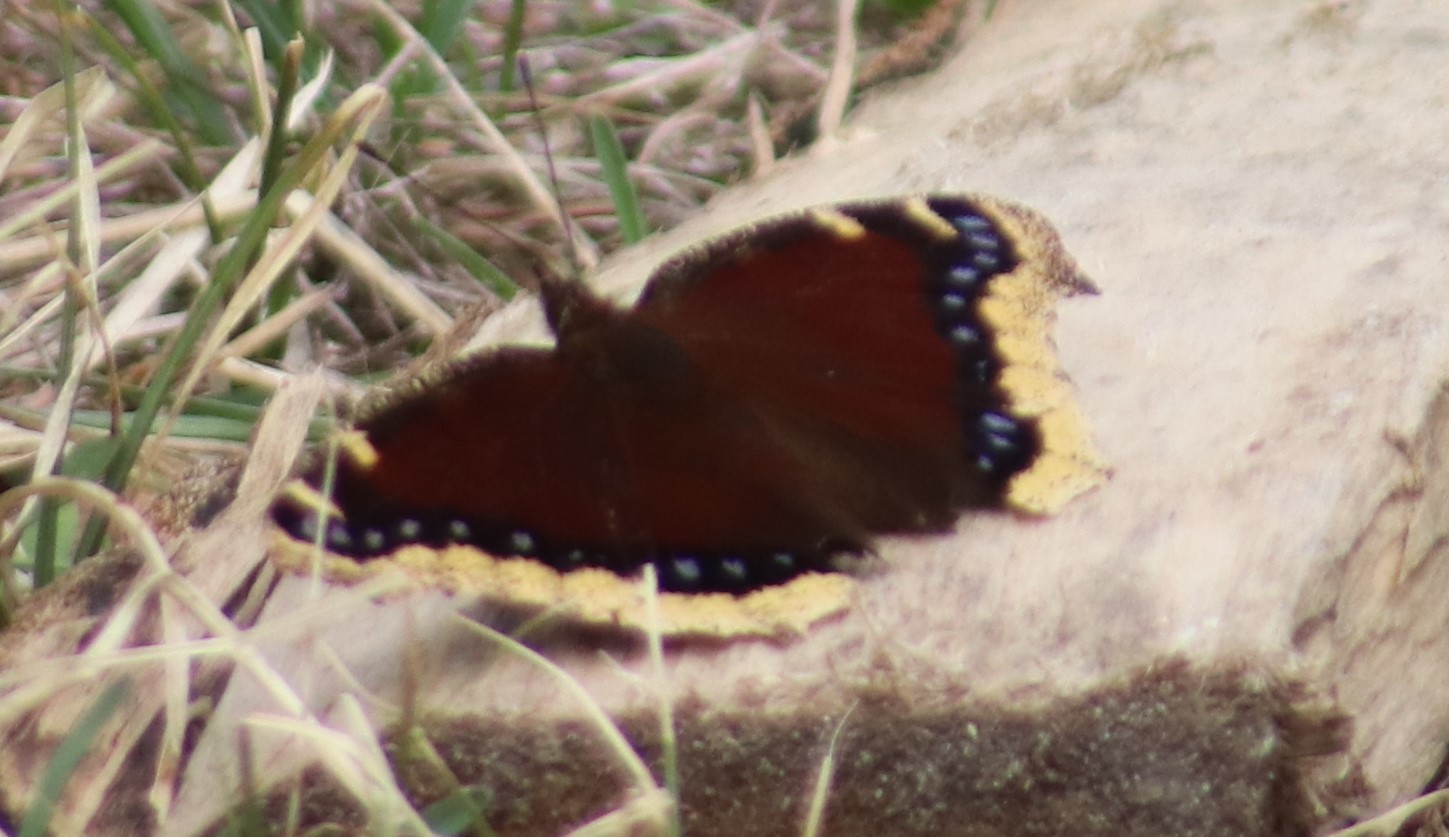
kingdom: Animalia
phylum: Arthropoda
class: Insecta
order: Lepidoptera
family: Nymphalidae
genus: Nymphalis
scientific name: Nymphalis antiopa
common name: Camberwell beauty
